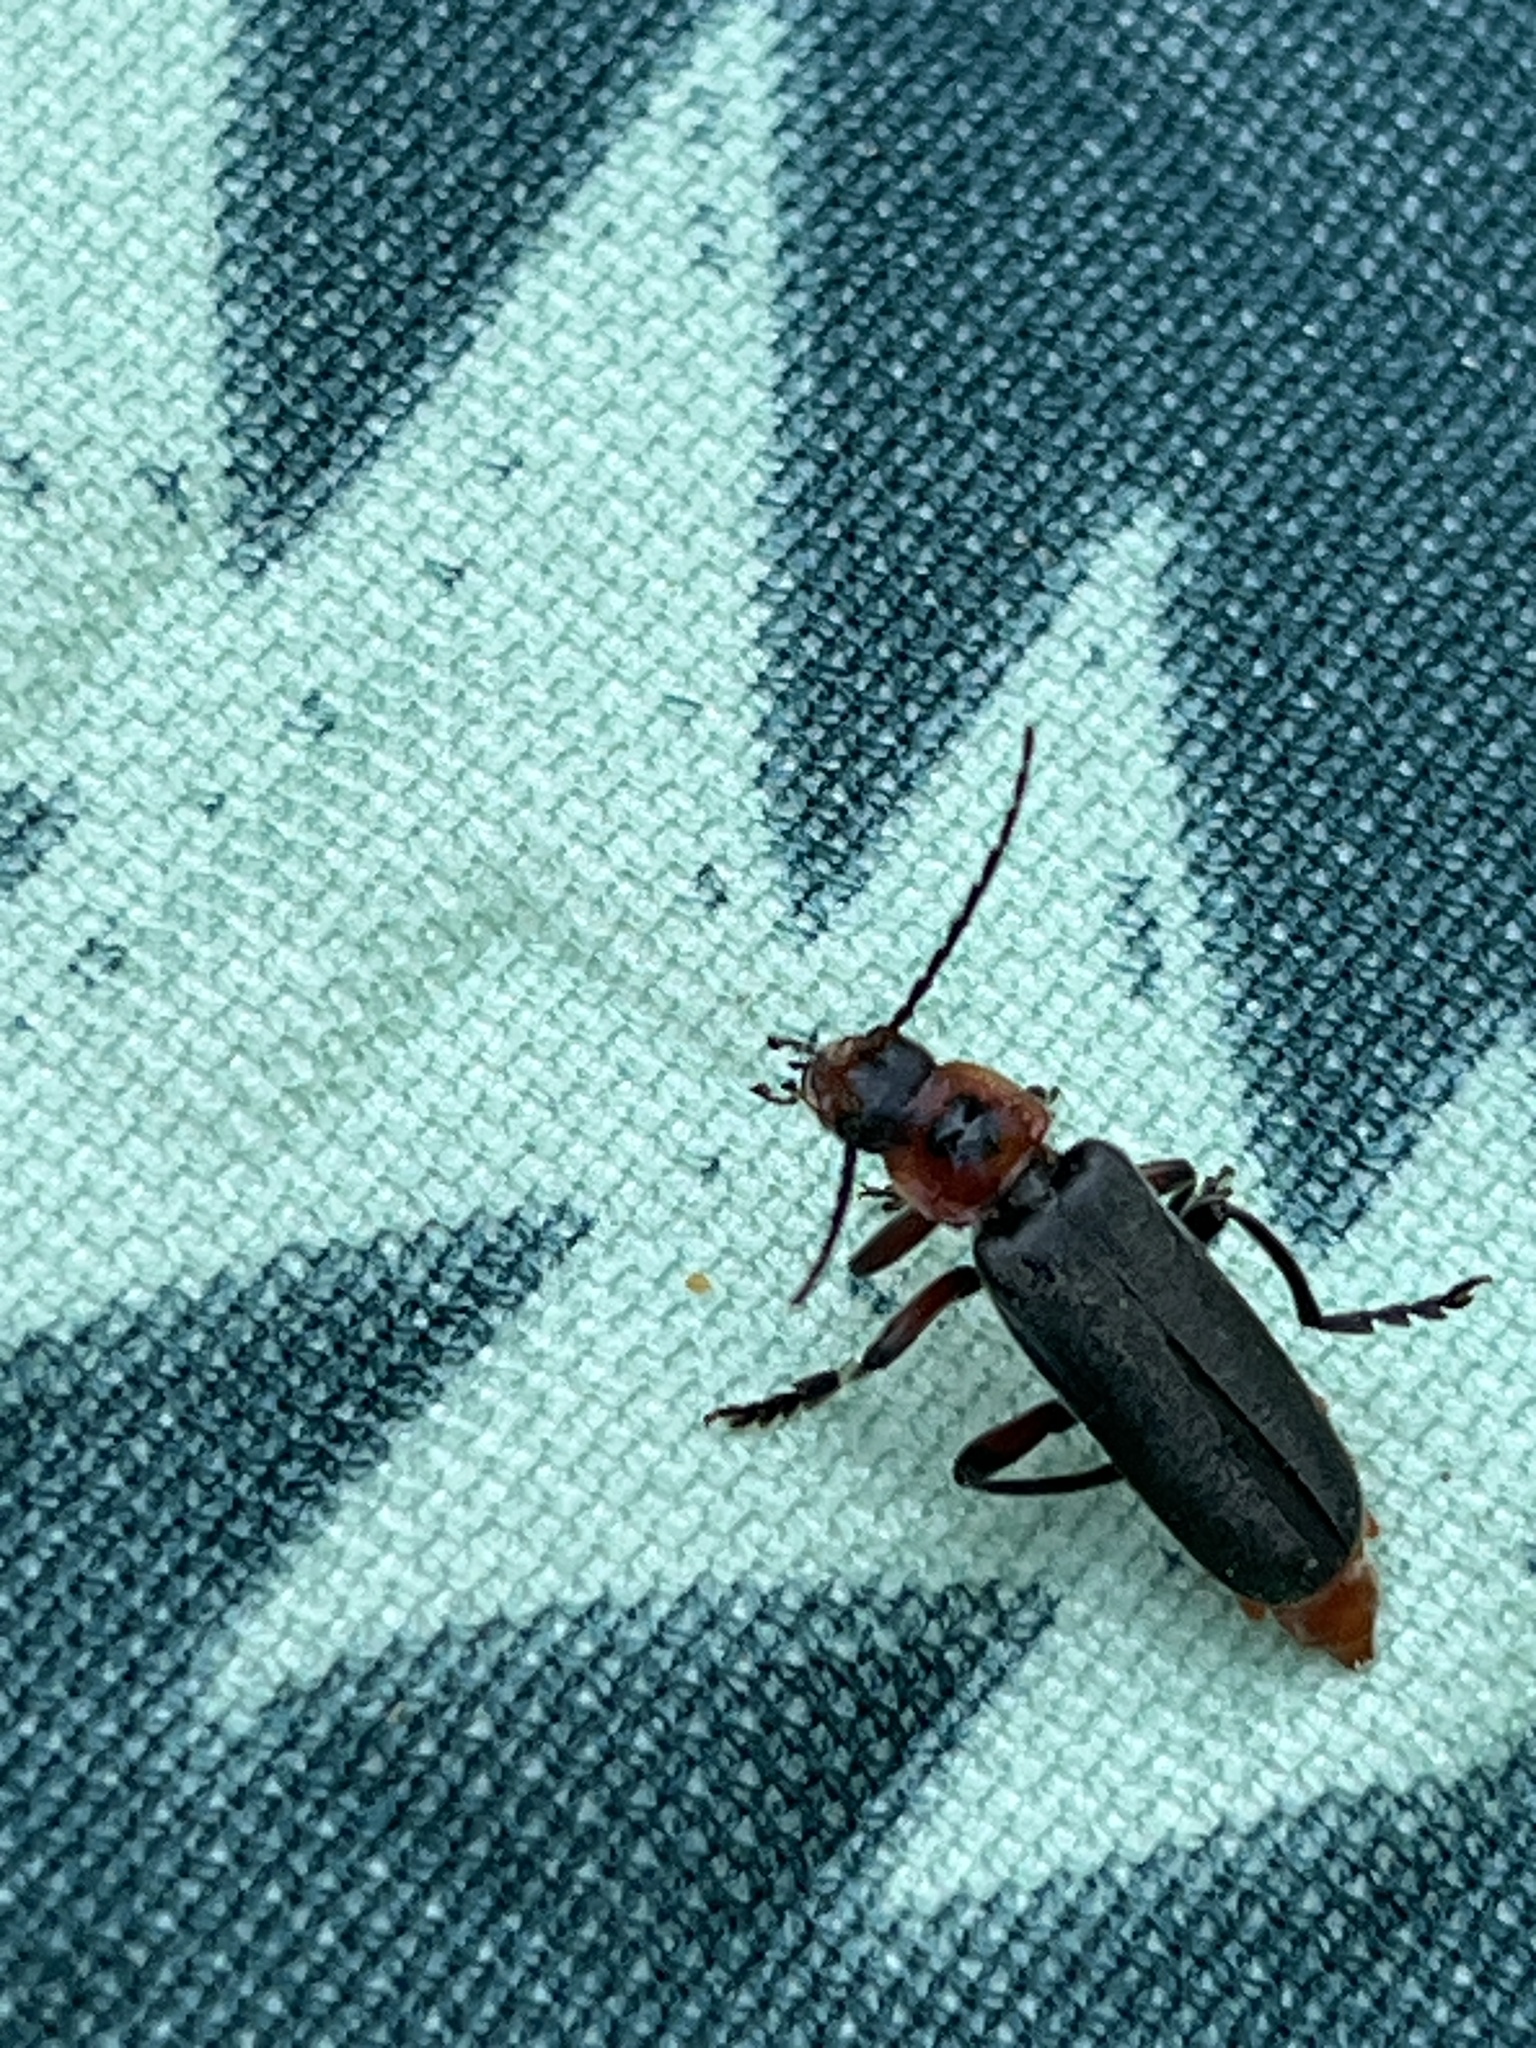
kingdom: Animalia
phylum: Arthropoda
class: Insecta
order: Coleoptera
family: Cantharidae
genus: Cantharis
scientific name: Cantharis rustica
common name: Soldier beetle
